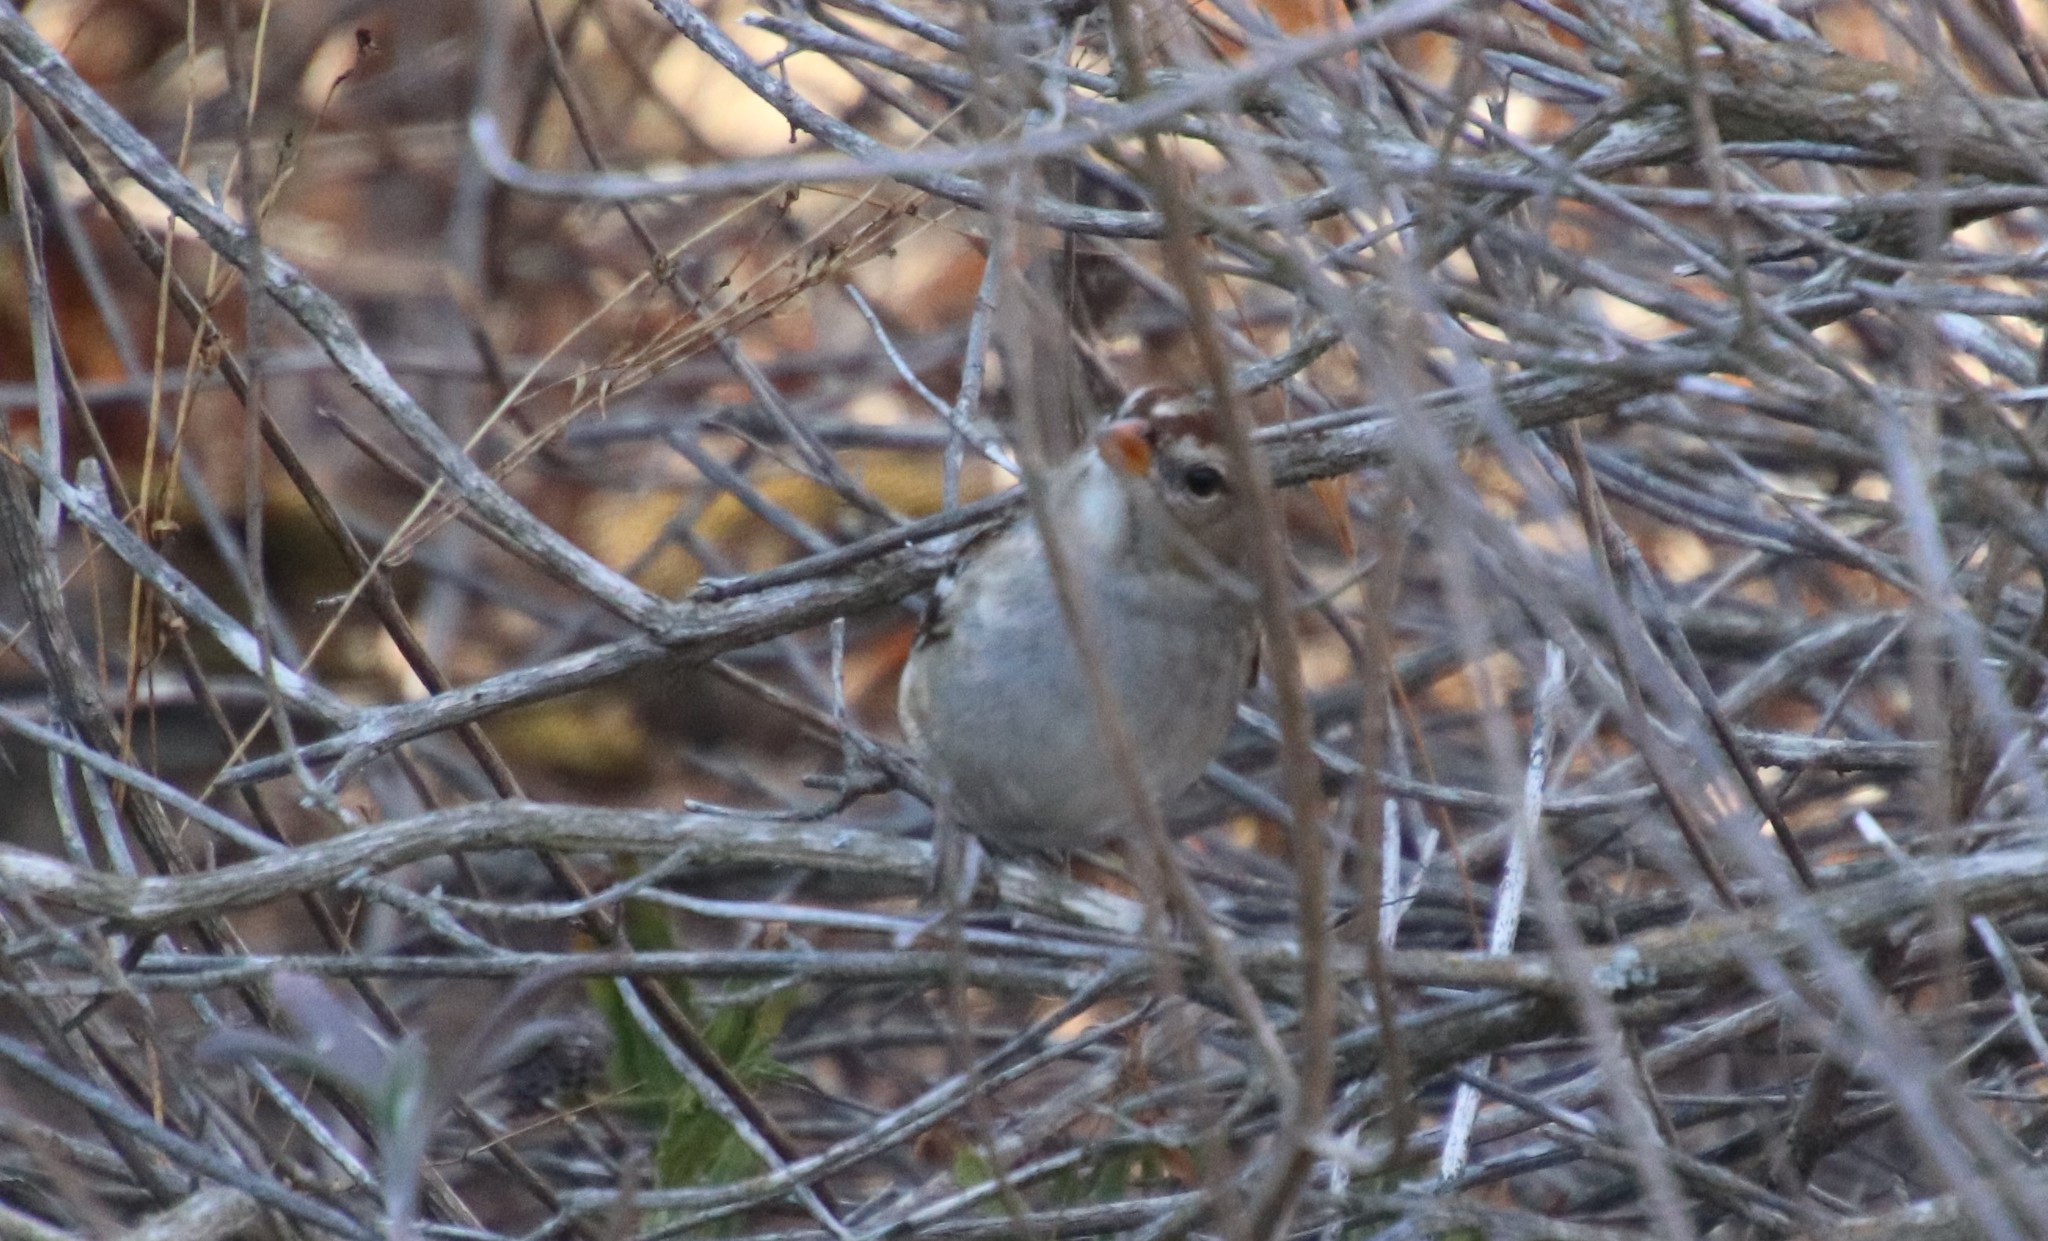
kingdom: Animalia
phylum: Chordata
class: Aves
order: Passeriformes
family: Passerellidae
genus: Zonotrichia
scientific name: Zonotrichia leucophrys
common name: White-crowned sparrow
